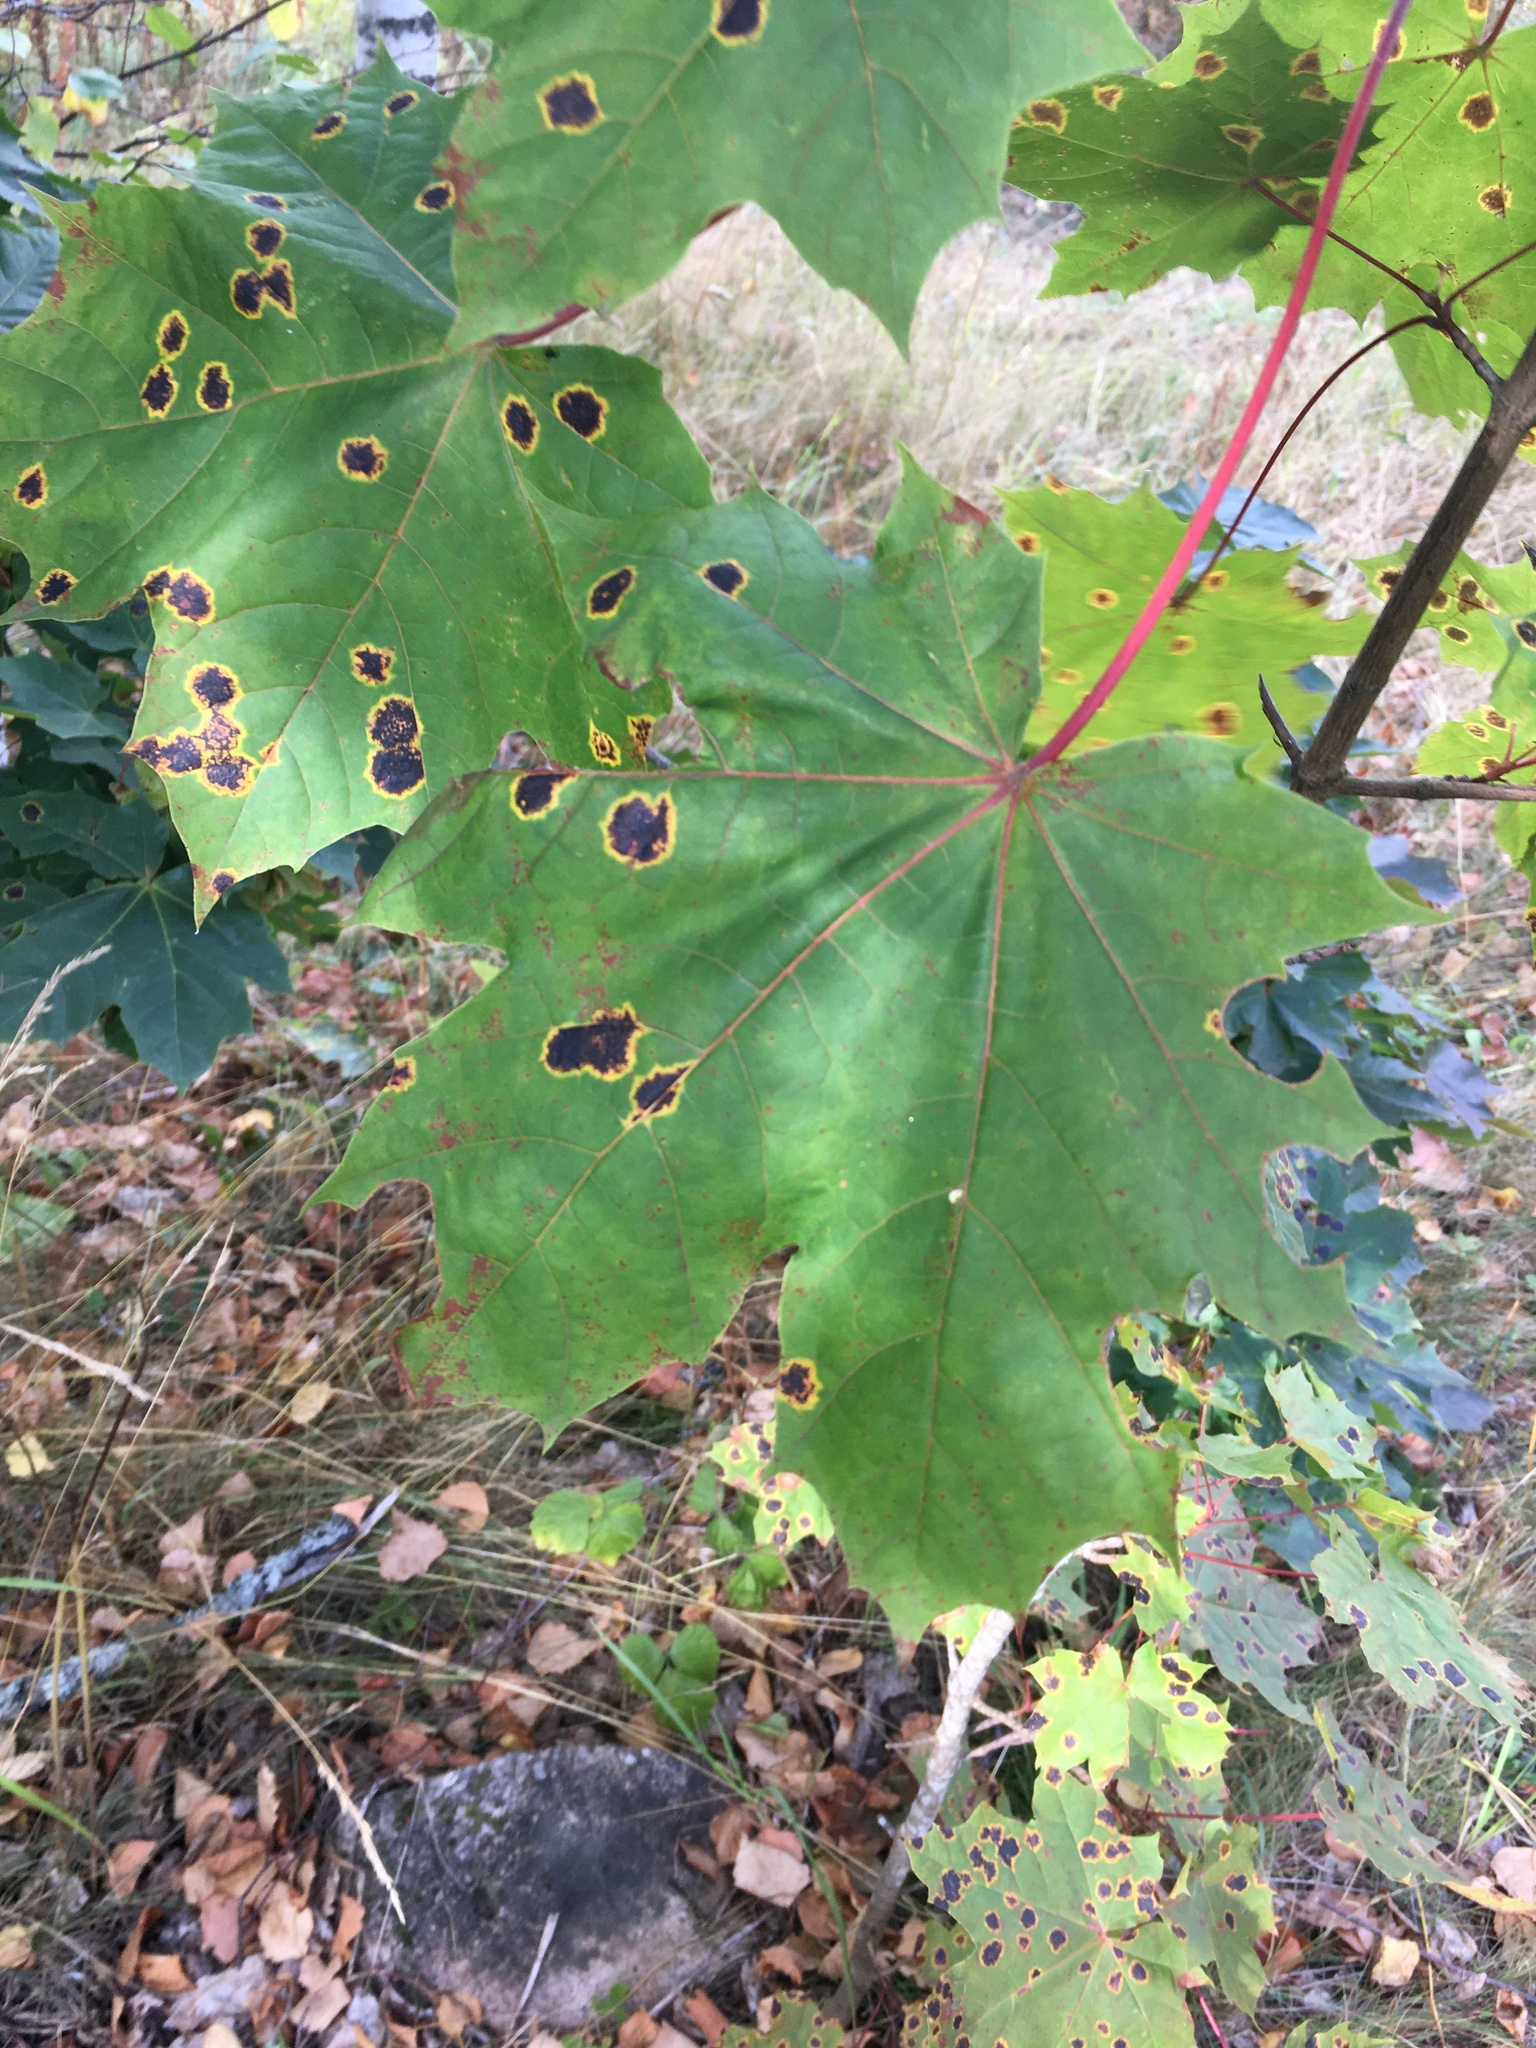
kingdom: Fungi
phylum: Ascomycota
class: Leotiomycetes
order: Rhytismatales
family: Rhytismataceae
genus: Rhytisma
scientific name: Rhytisma acerinum
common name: European tar spot
